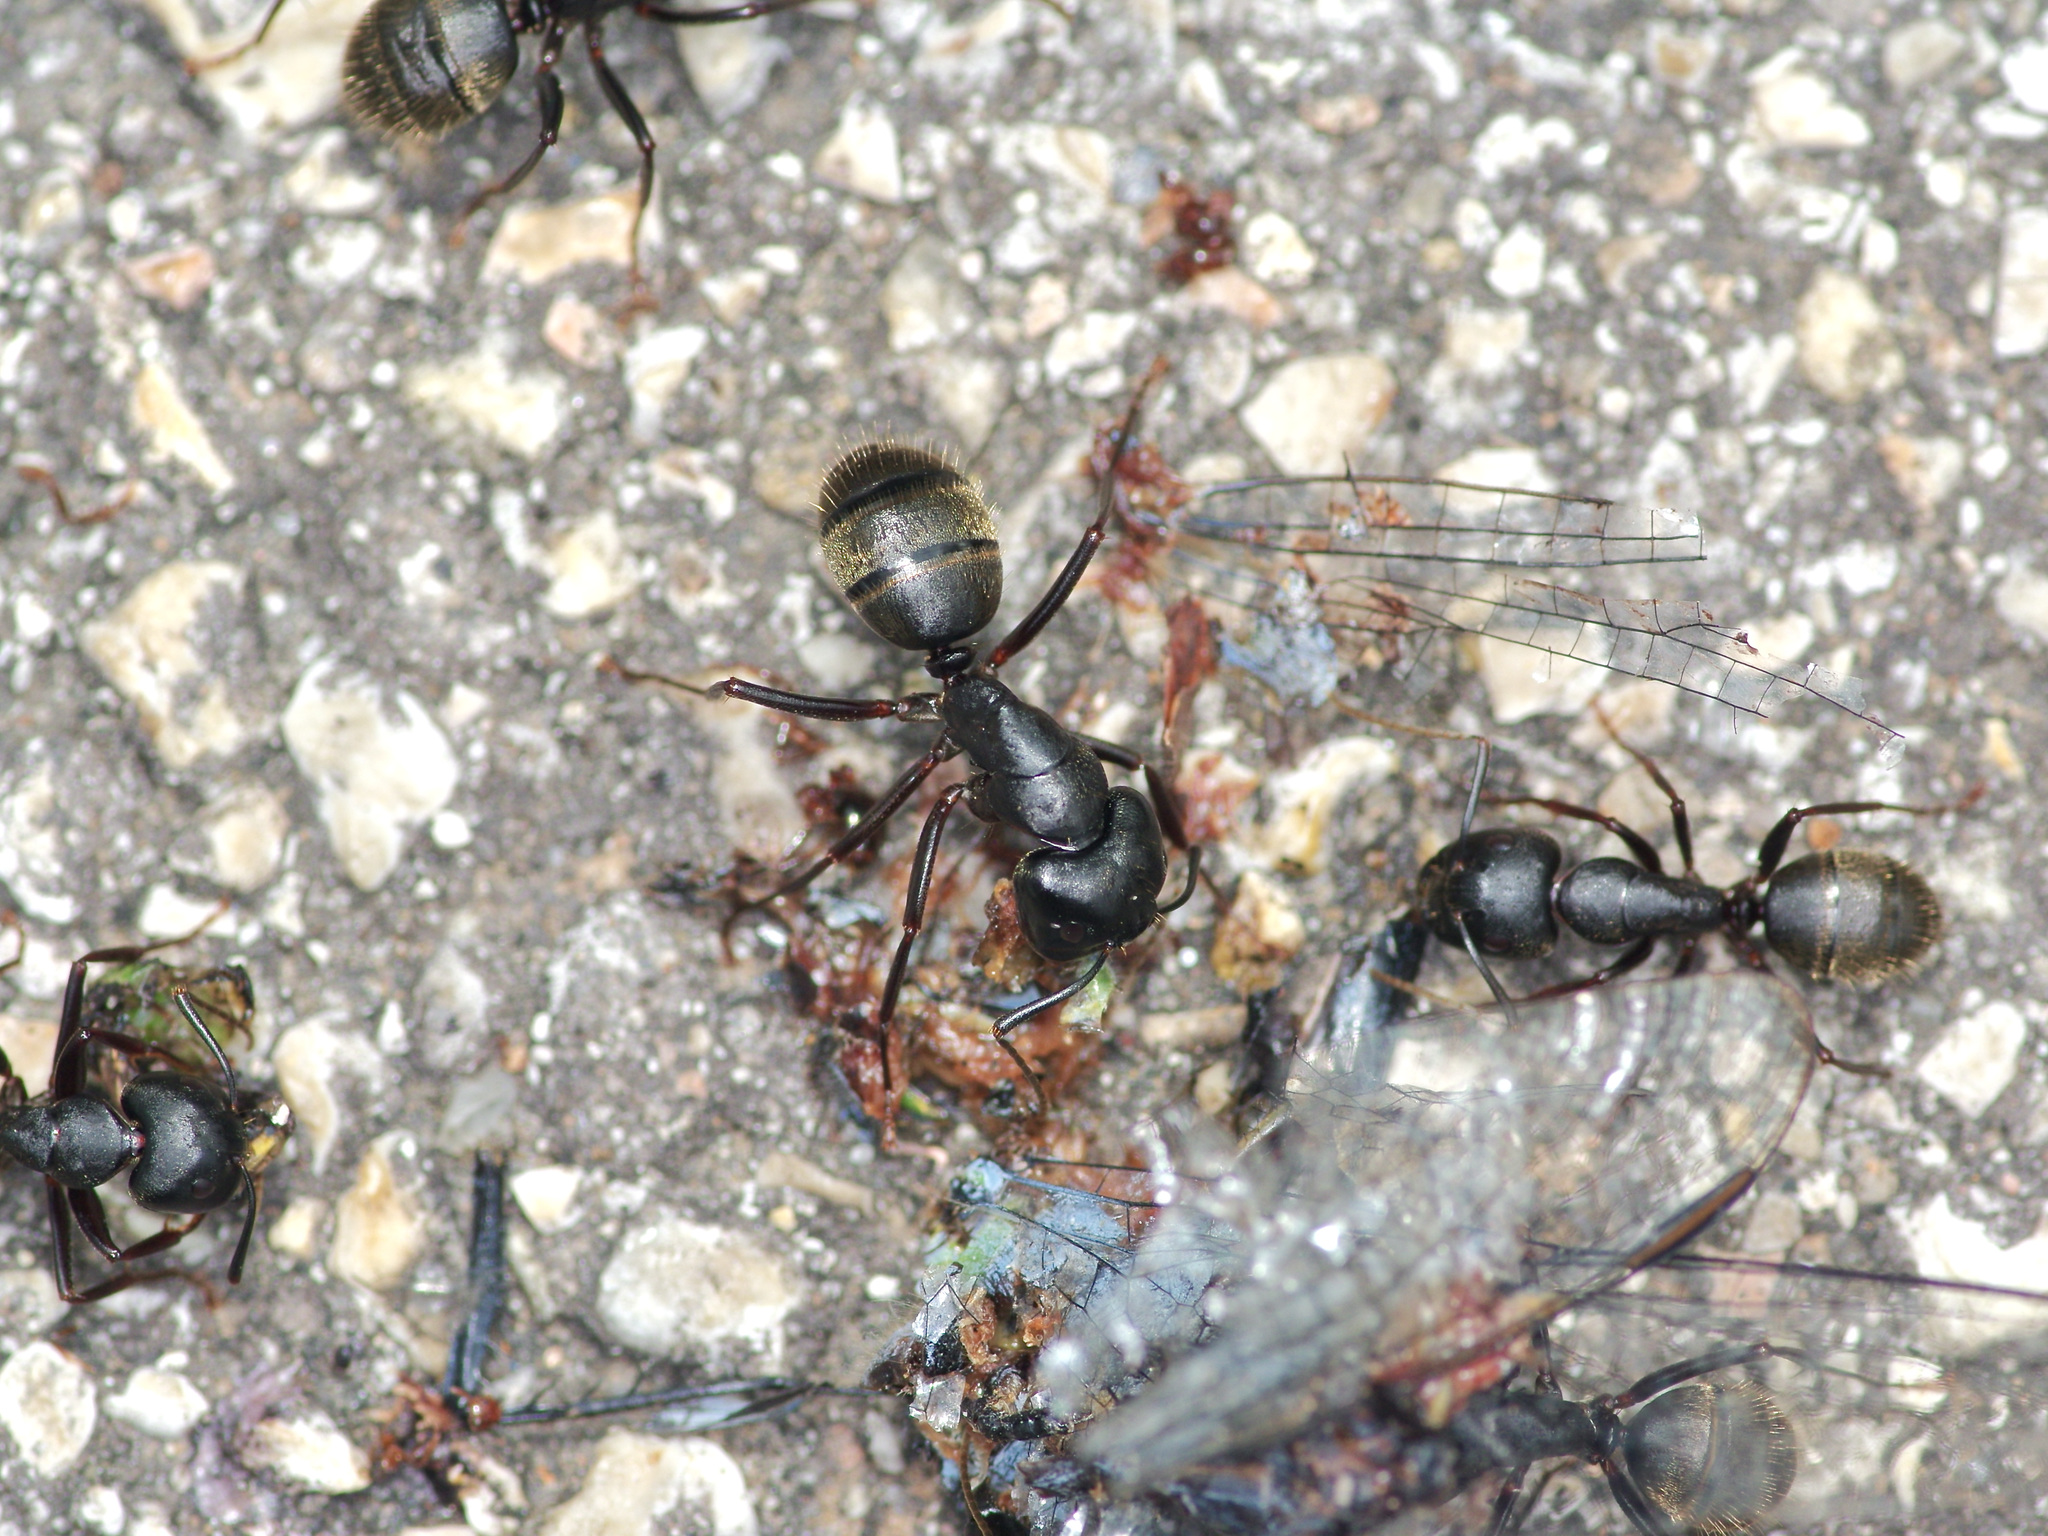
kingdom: Animalia
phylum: Arthropoda
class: Insecta
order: Hymenoptera
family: Formicidae
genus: Camponotus
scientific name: Camponotus pennsylvanicus
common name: Black carpenter ant
